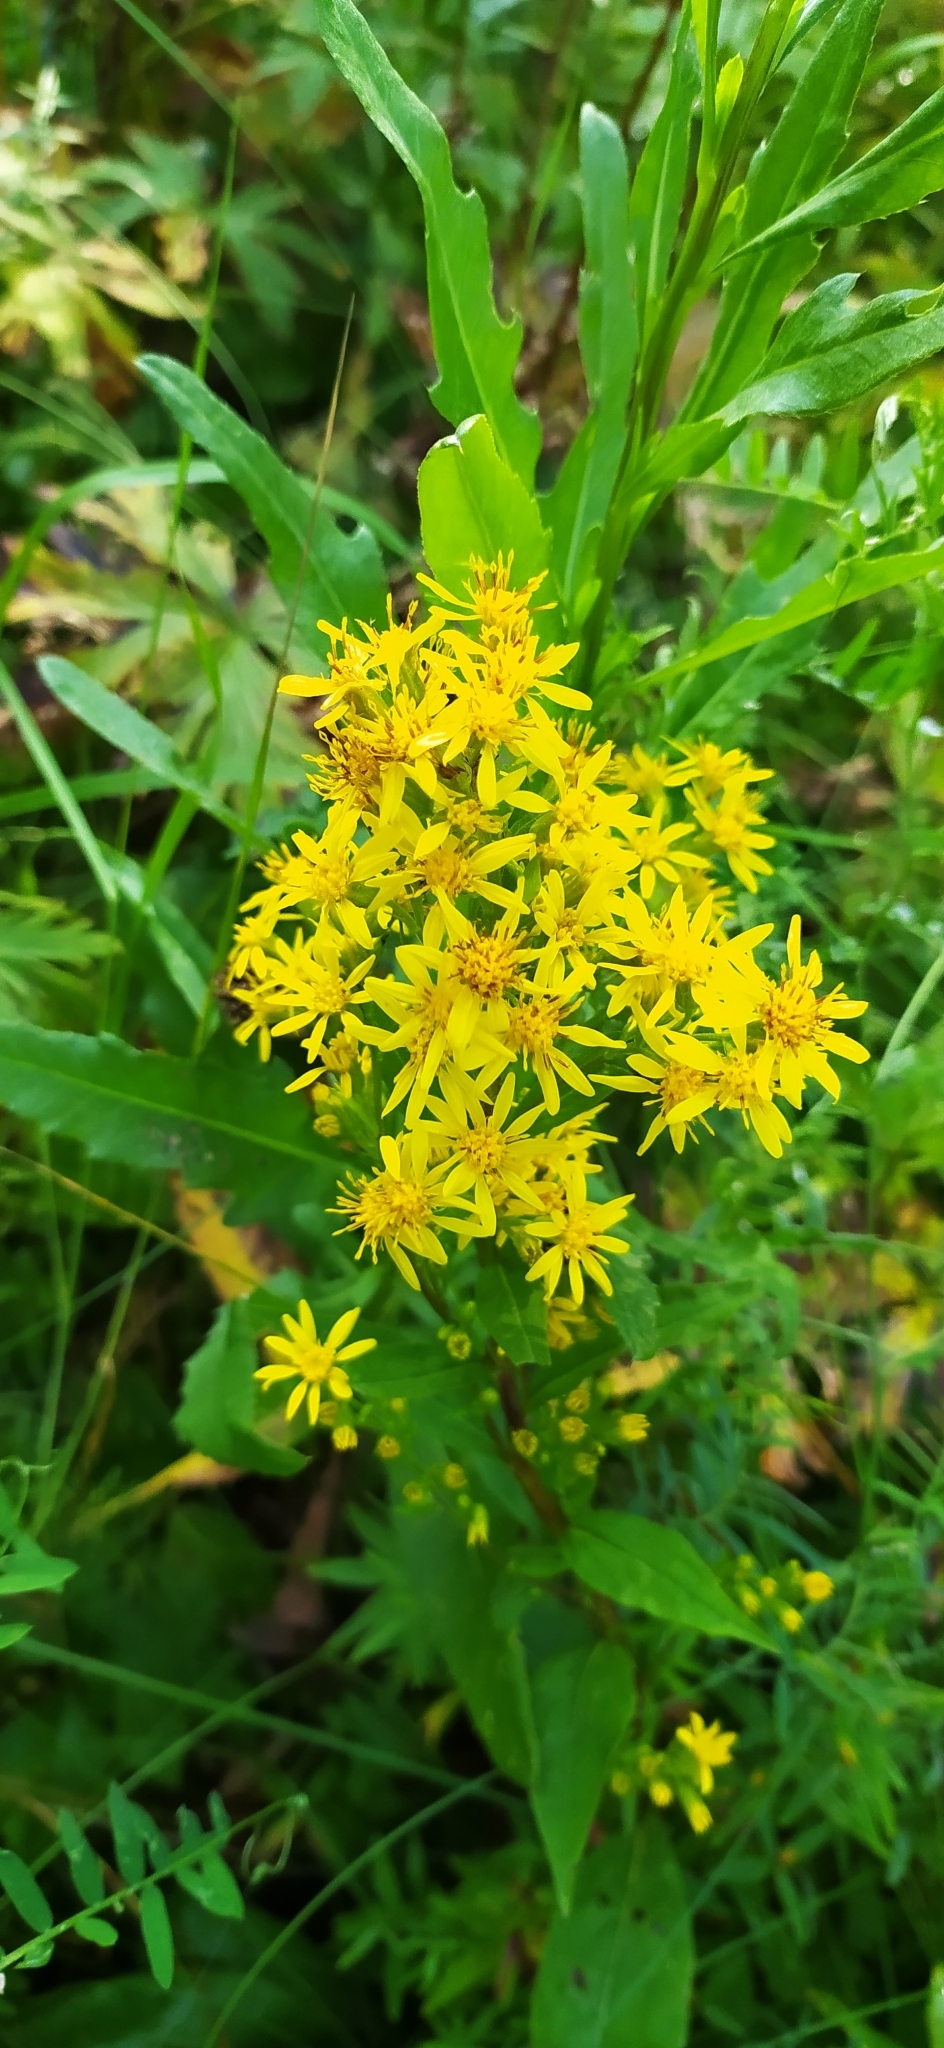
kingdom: Plantae
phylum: Tracheophyta
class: Magnoliopsida
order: Asterales
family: Asteraceae
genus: Solidago
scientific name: Solidago virgaurea
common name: Goldenrod
